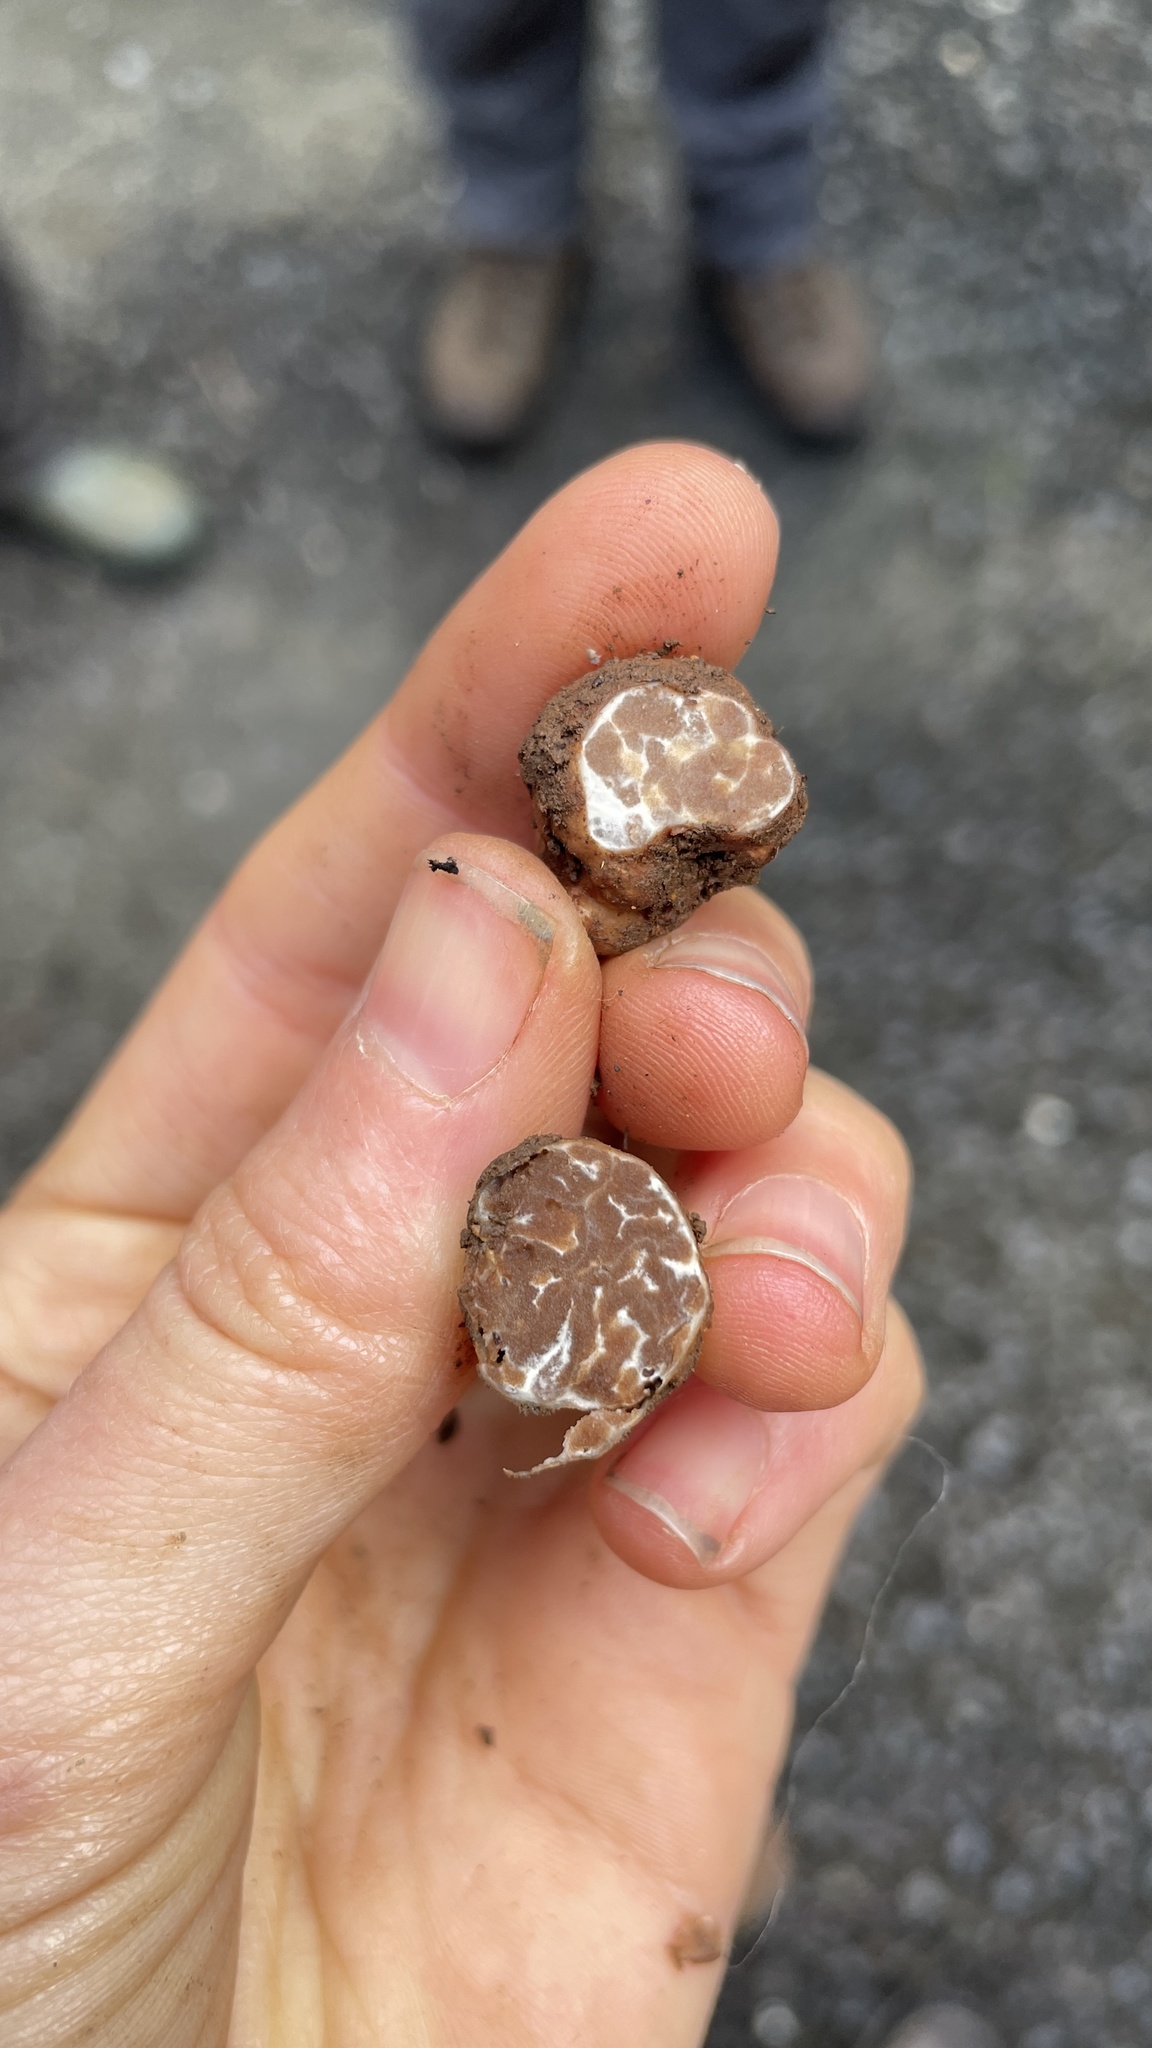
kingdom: Fungi
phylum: Ascomycota
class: Pezizomycetes
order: Pezizales
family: Tuberaceae
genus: Tuber
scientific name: Tuber oregonense
